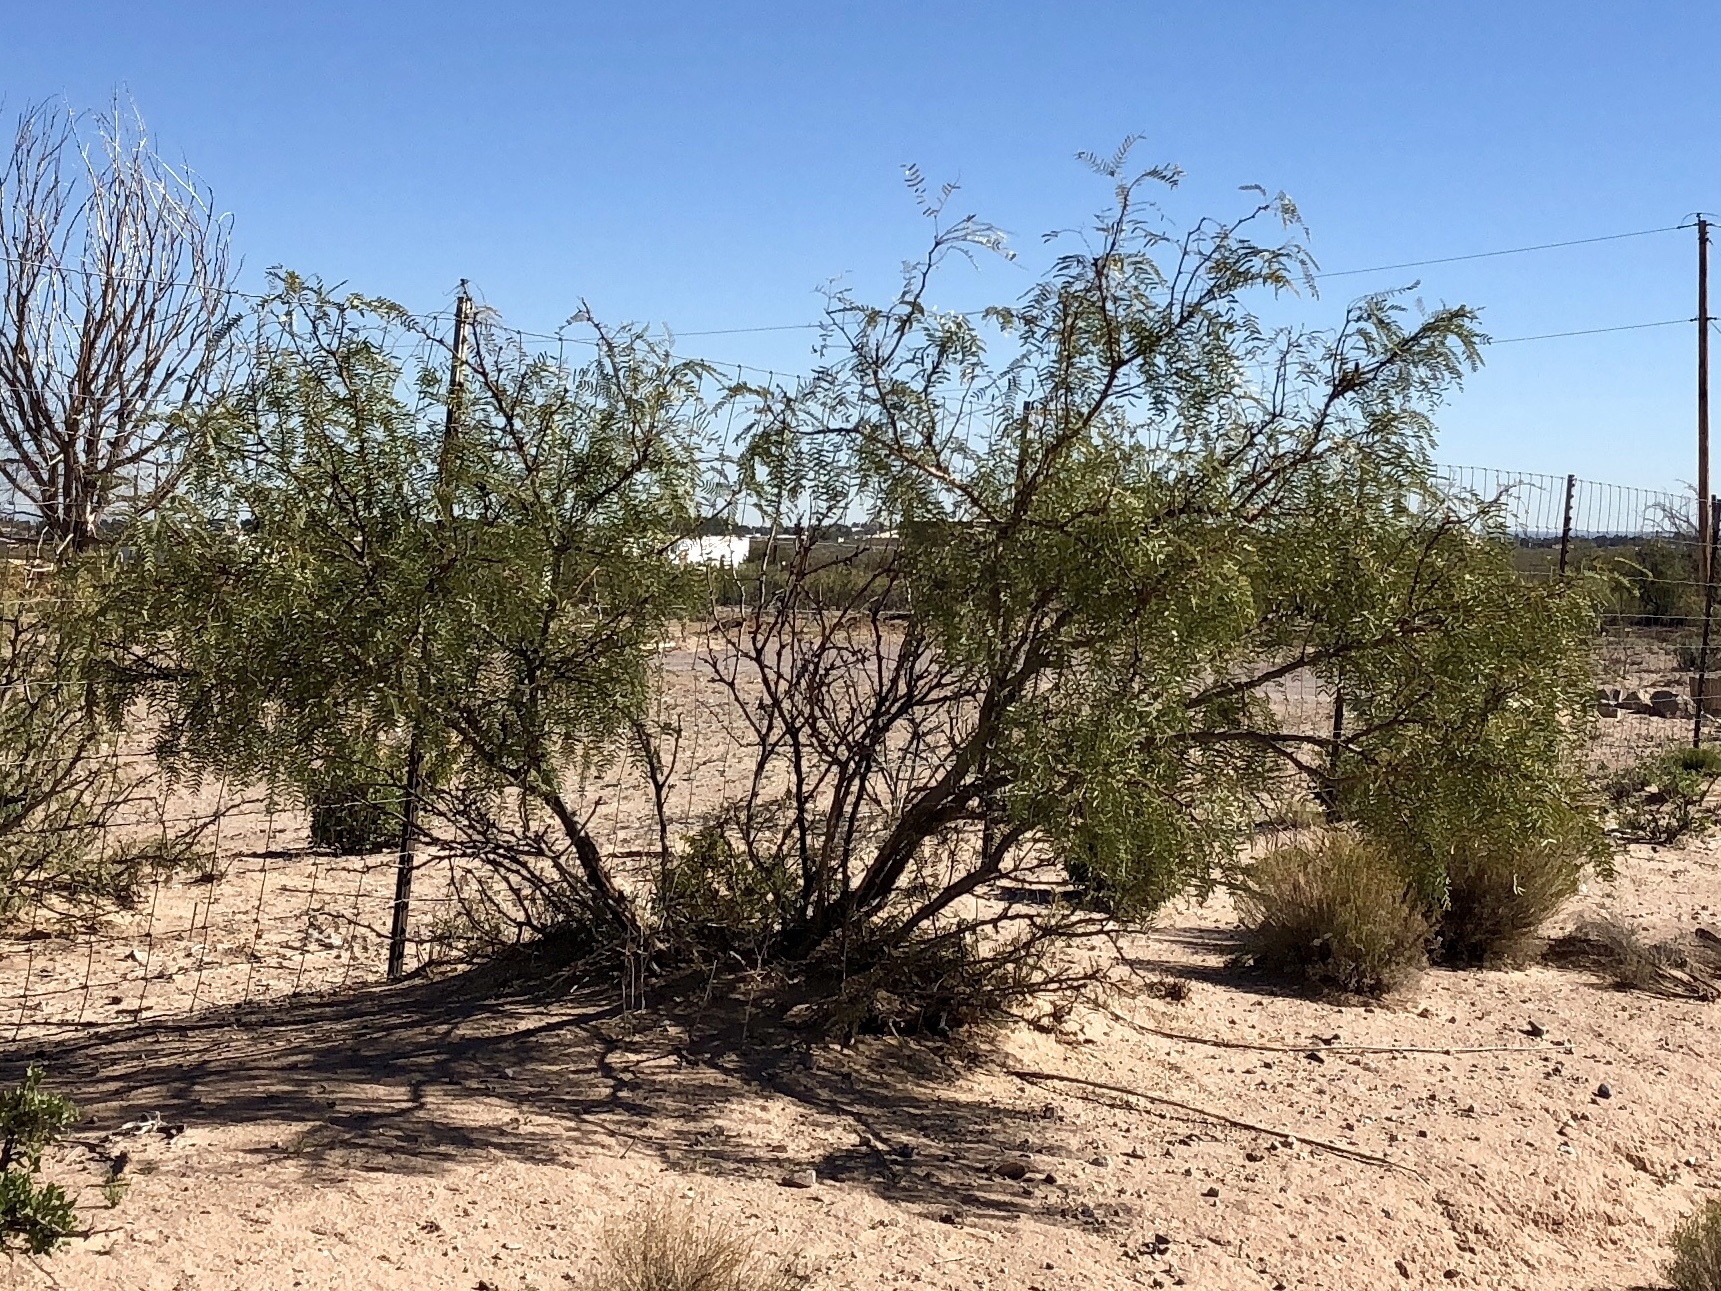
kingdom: Plantae
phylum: Tracheophyta
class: Magnoliopsida
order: Fabales
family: Fabaceae
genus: Prosopis
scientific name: Prosopis glandulosa
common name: Honey mesquite
